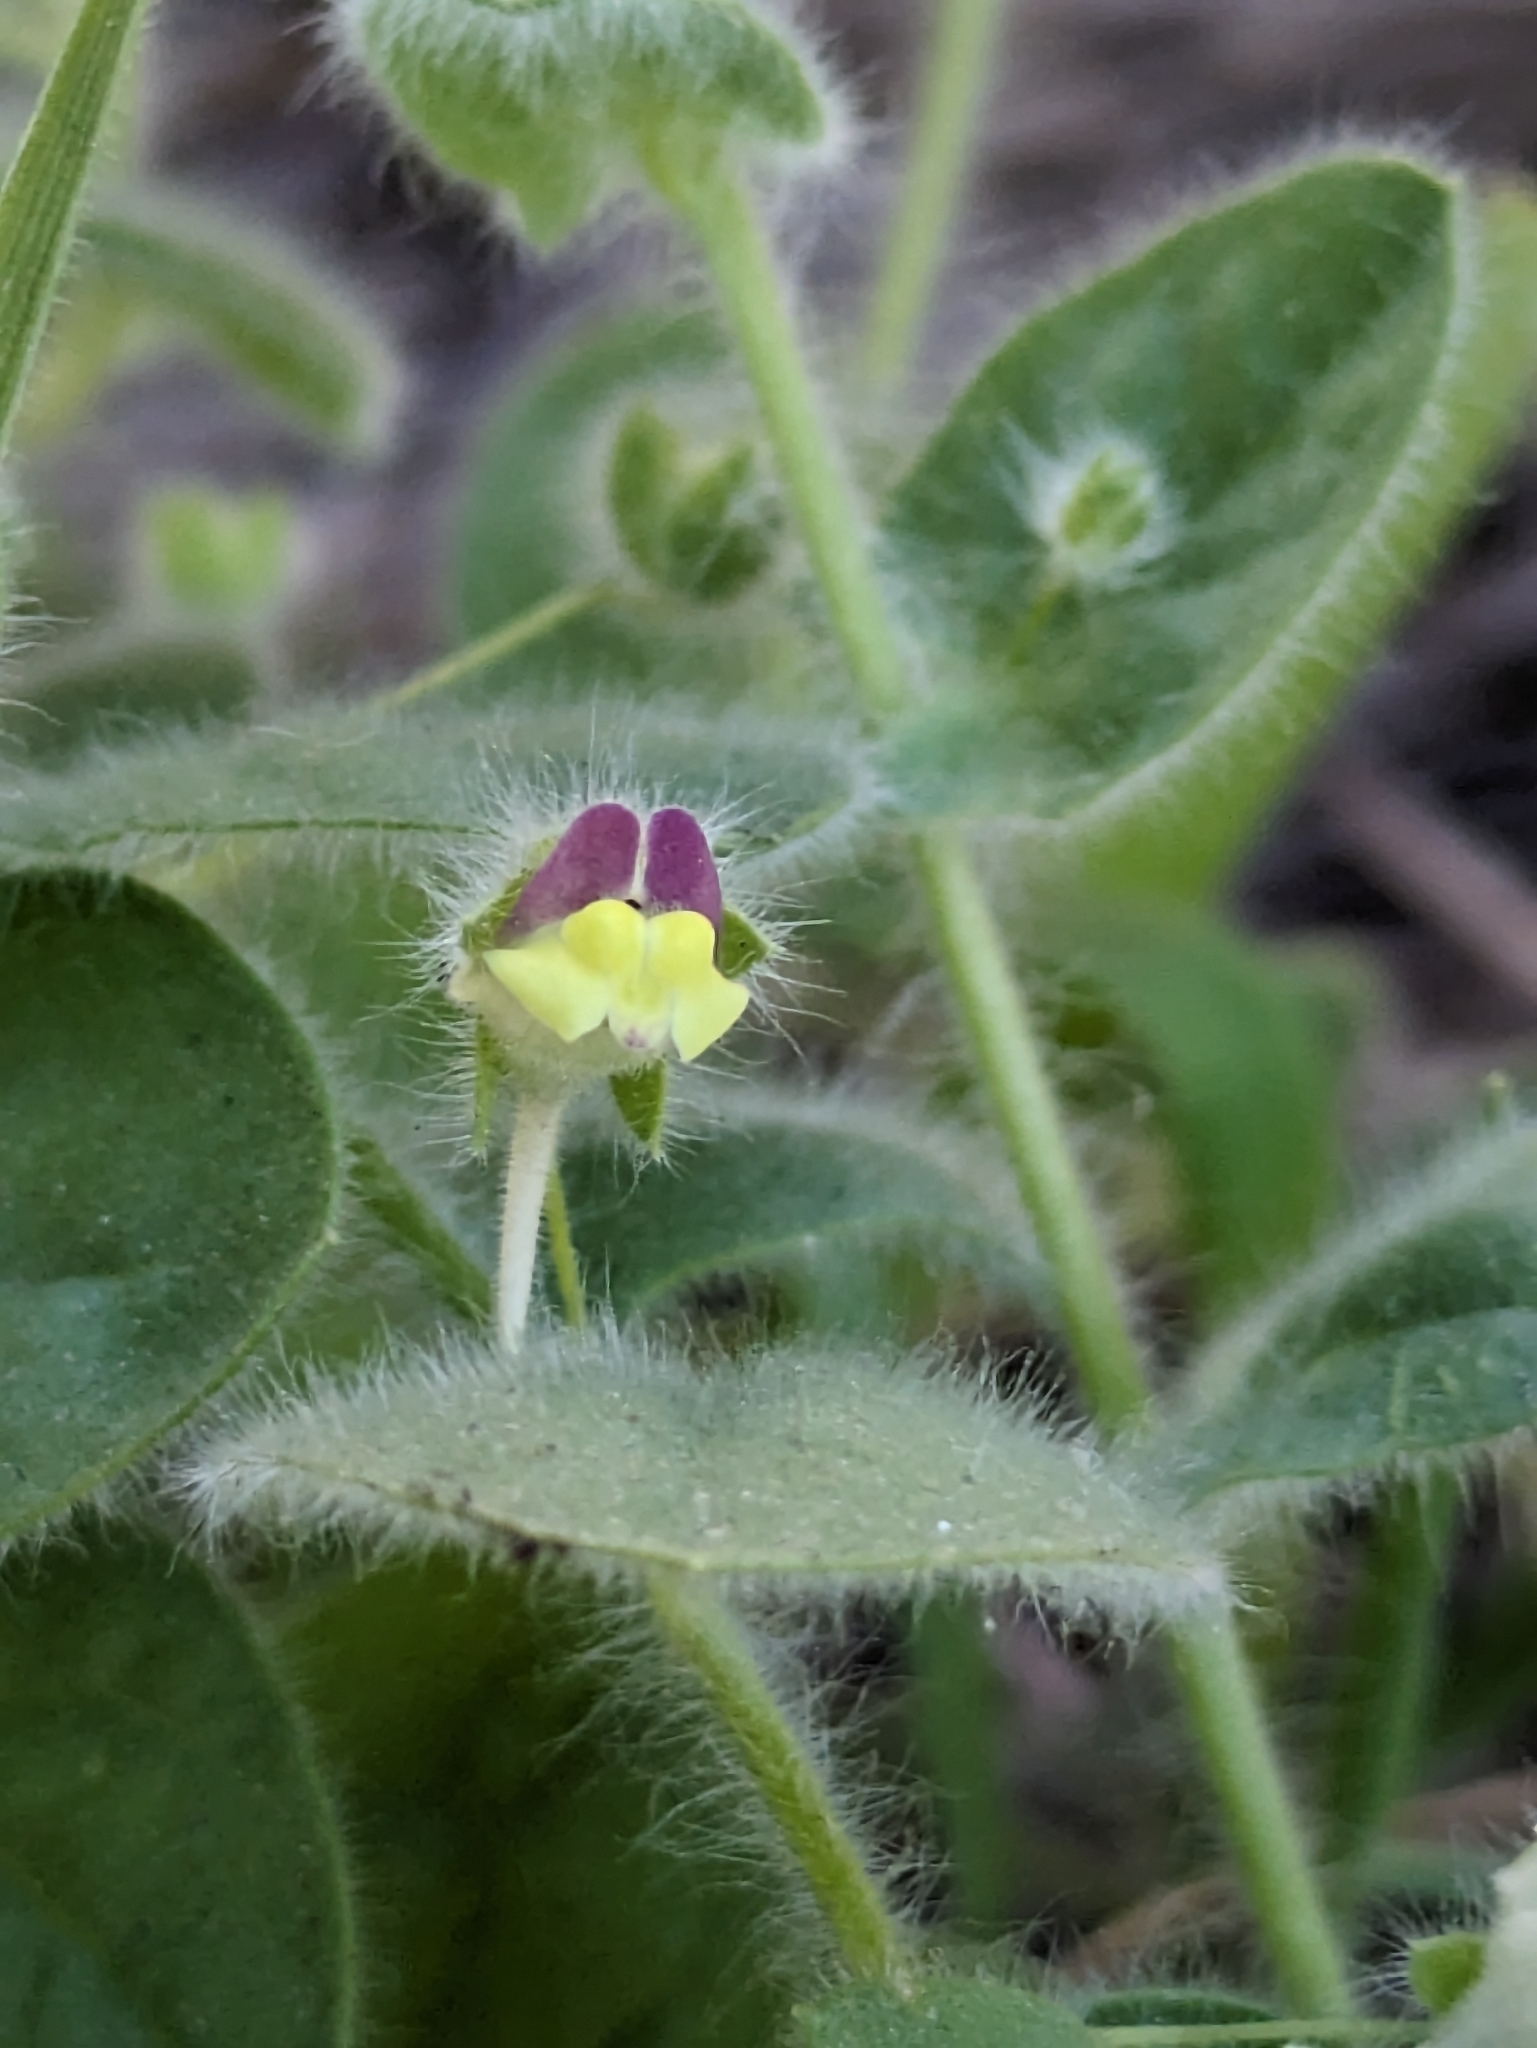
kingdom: Plantae
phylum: Tracheophyta
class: Magnoliopsida
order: Lamiales
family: Plantaginaceae
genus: Kickxia
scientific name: Kickxia elatine
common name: Sharp-leaved fluellen
